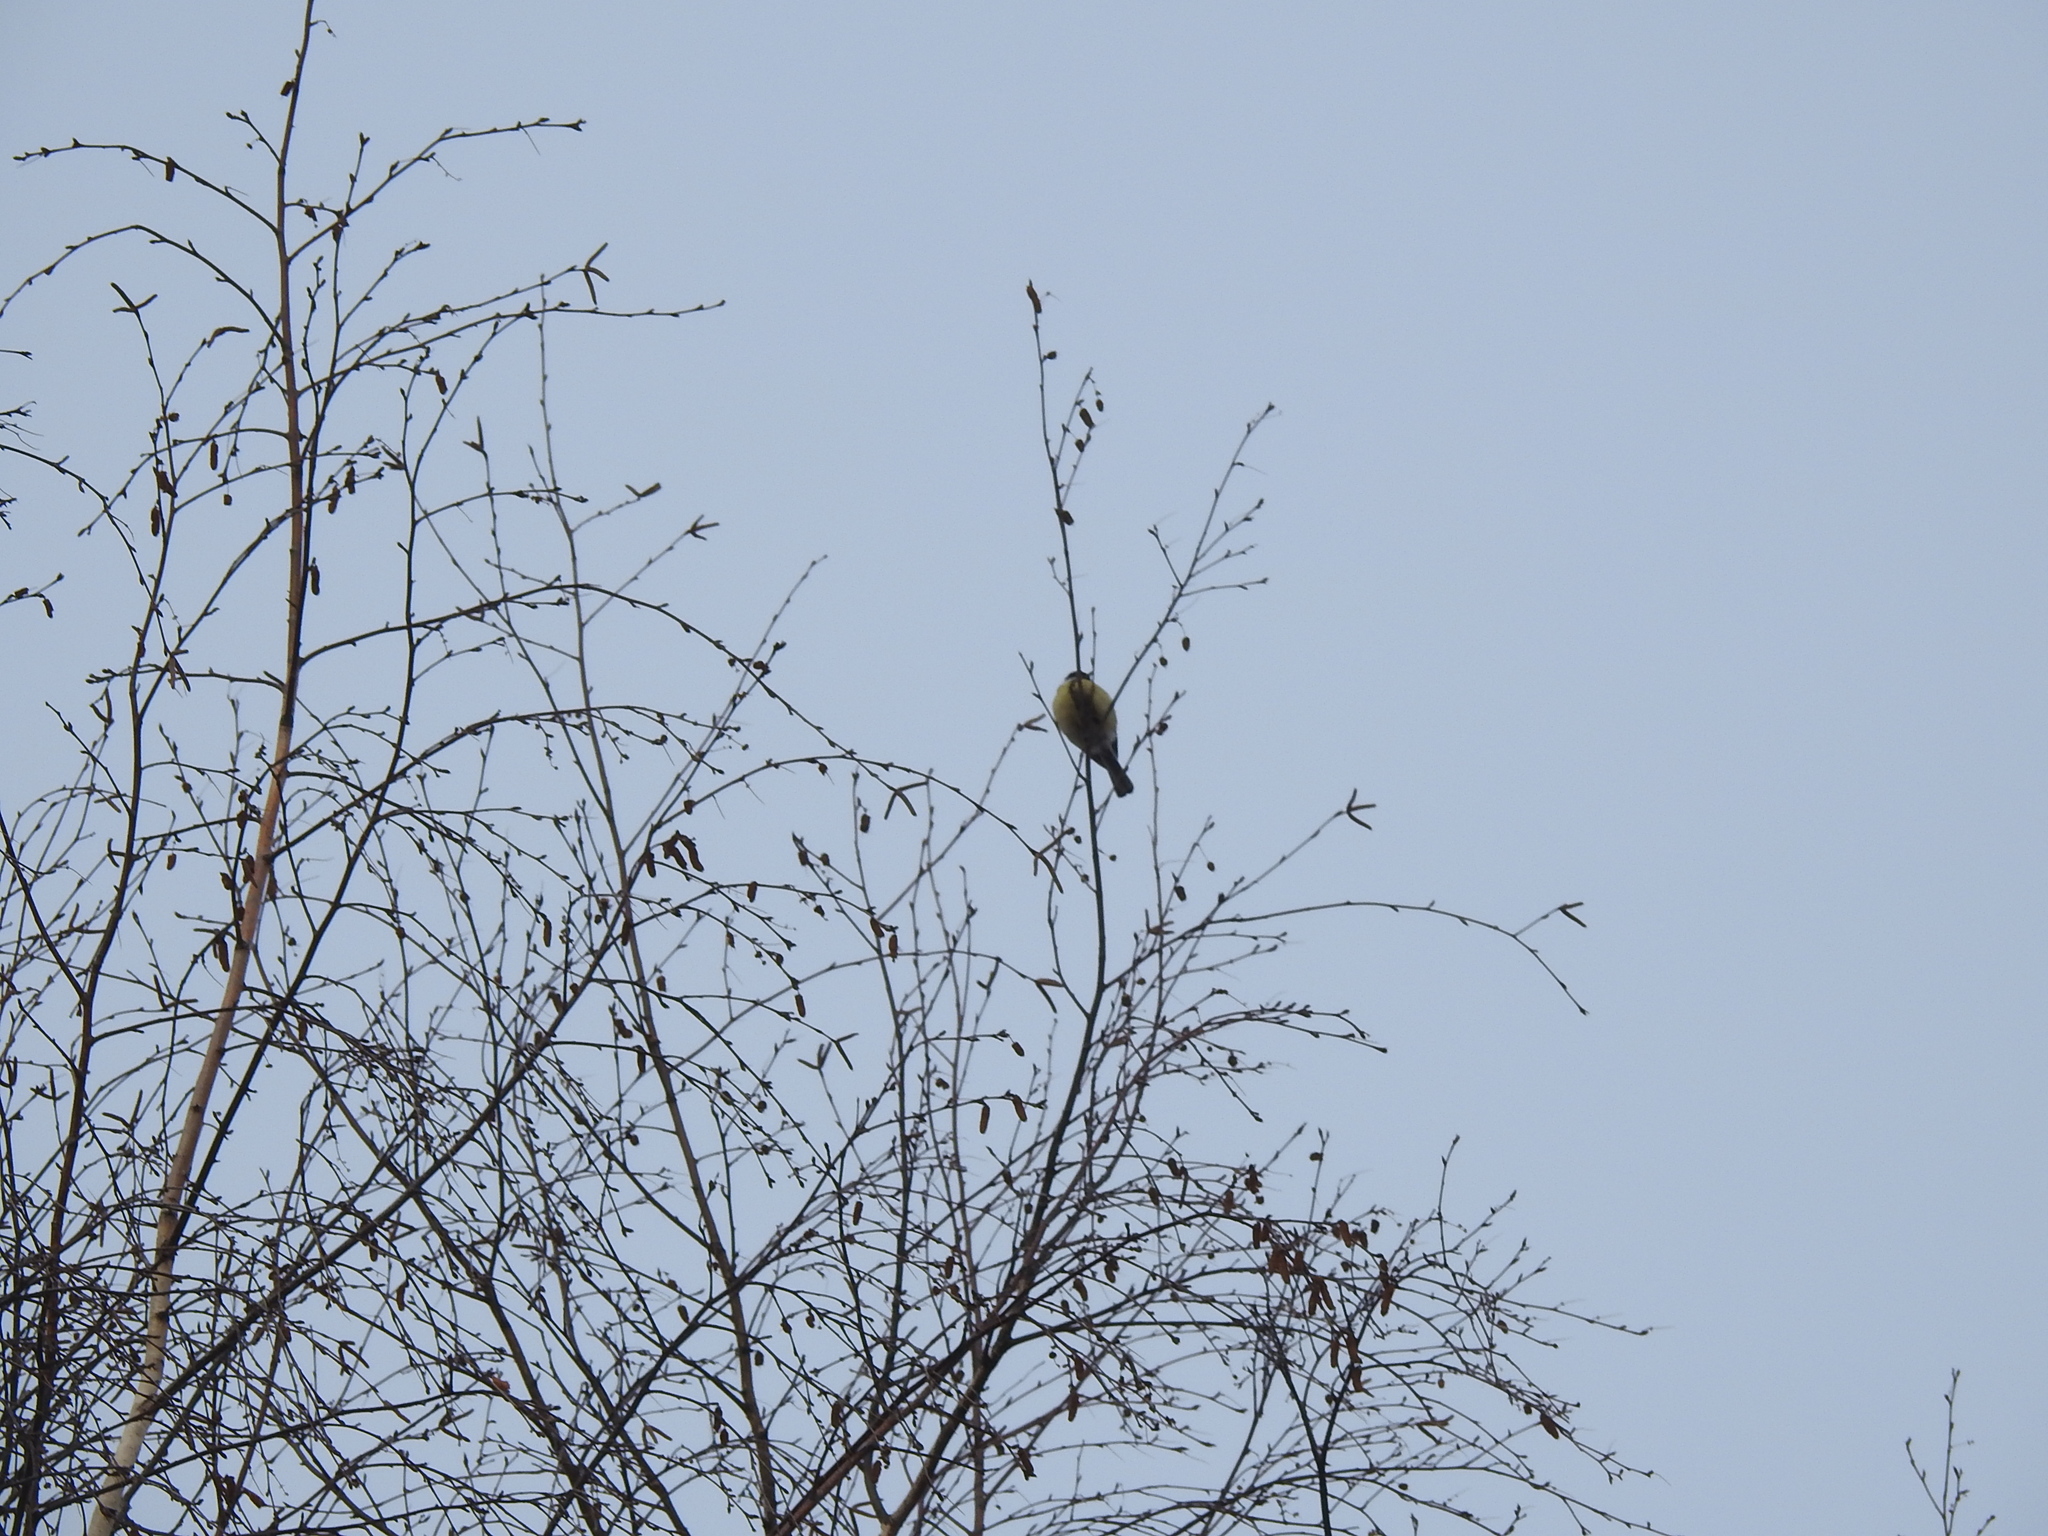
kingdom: Animalia
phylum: Chordata
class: Aves
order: Passeriformes
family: Paridae
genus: Parus
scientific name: Parus major
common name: Great tit
